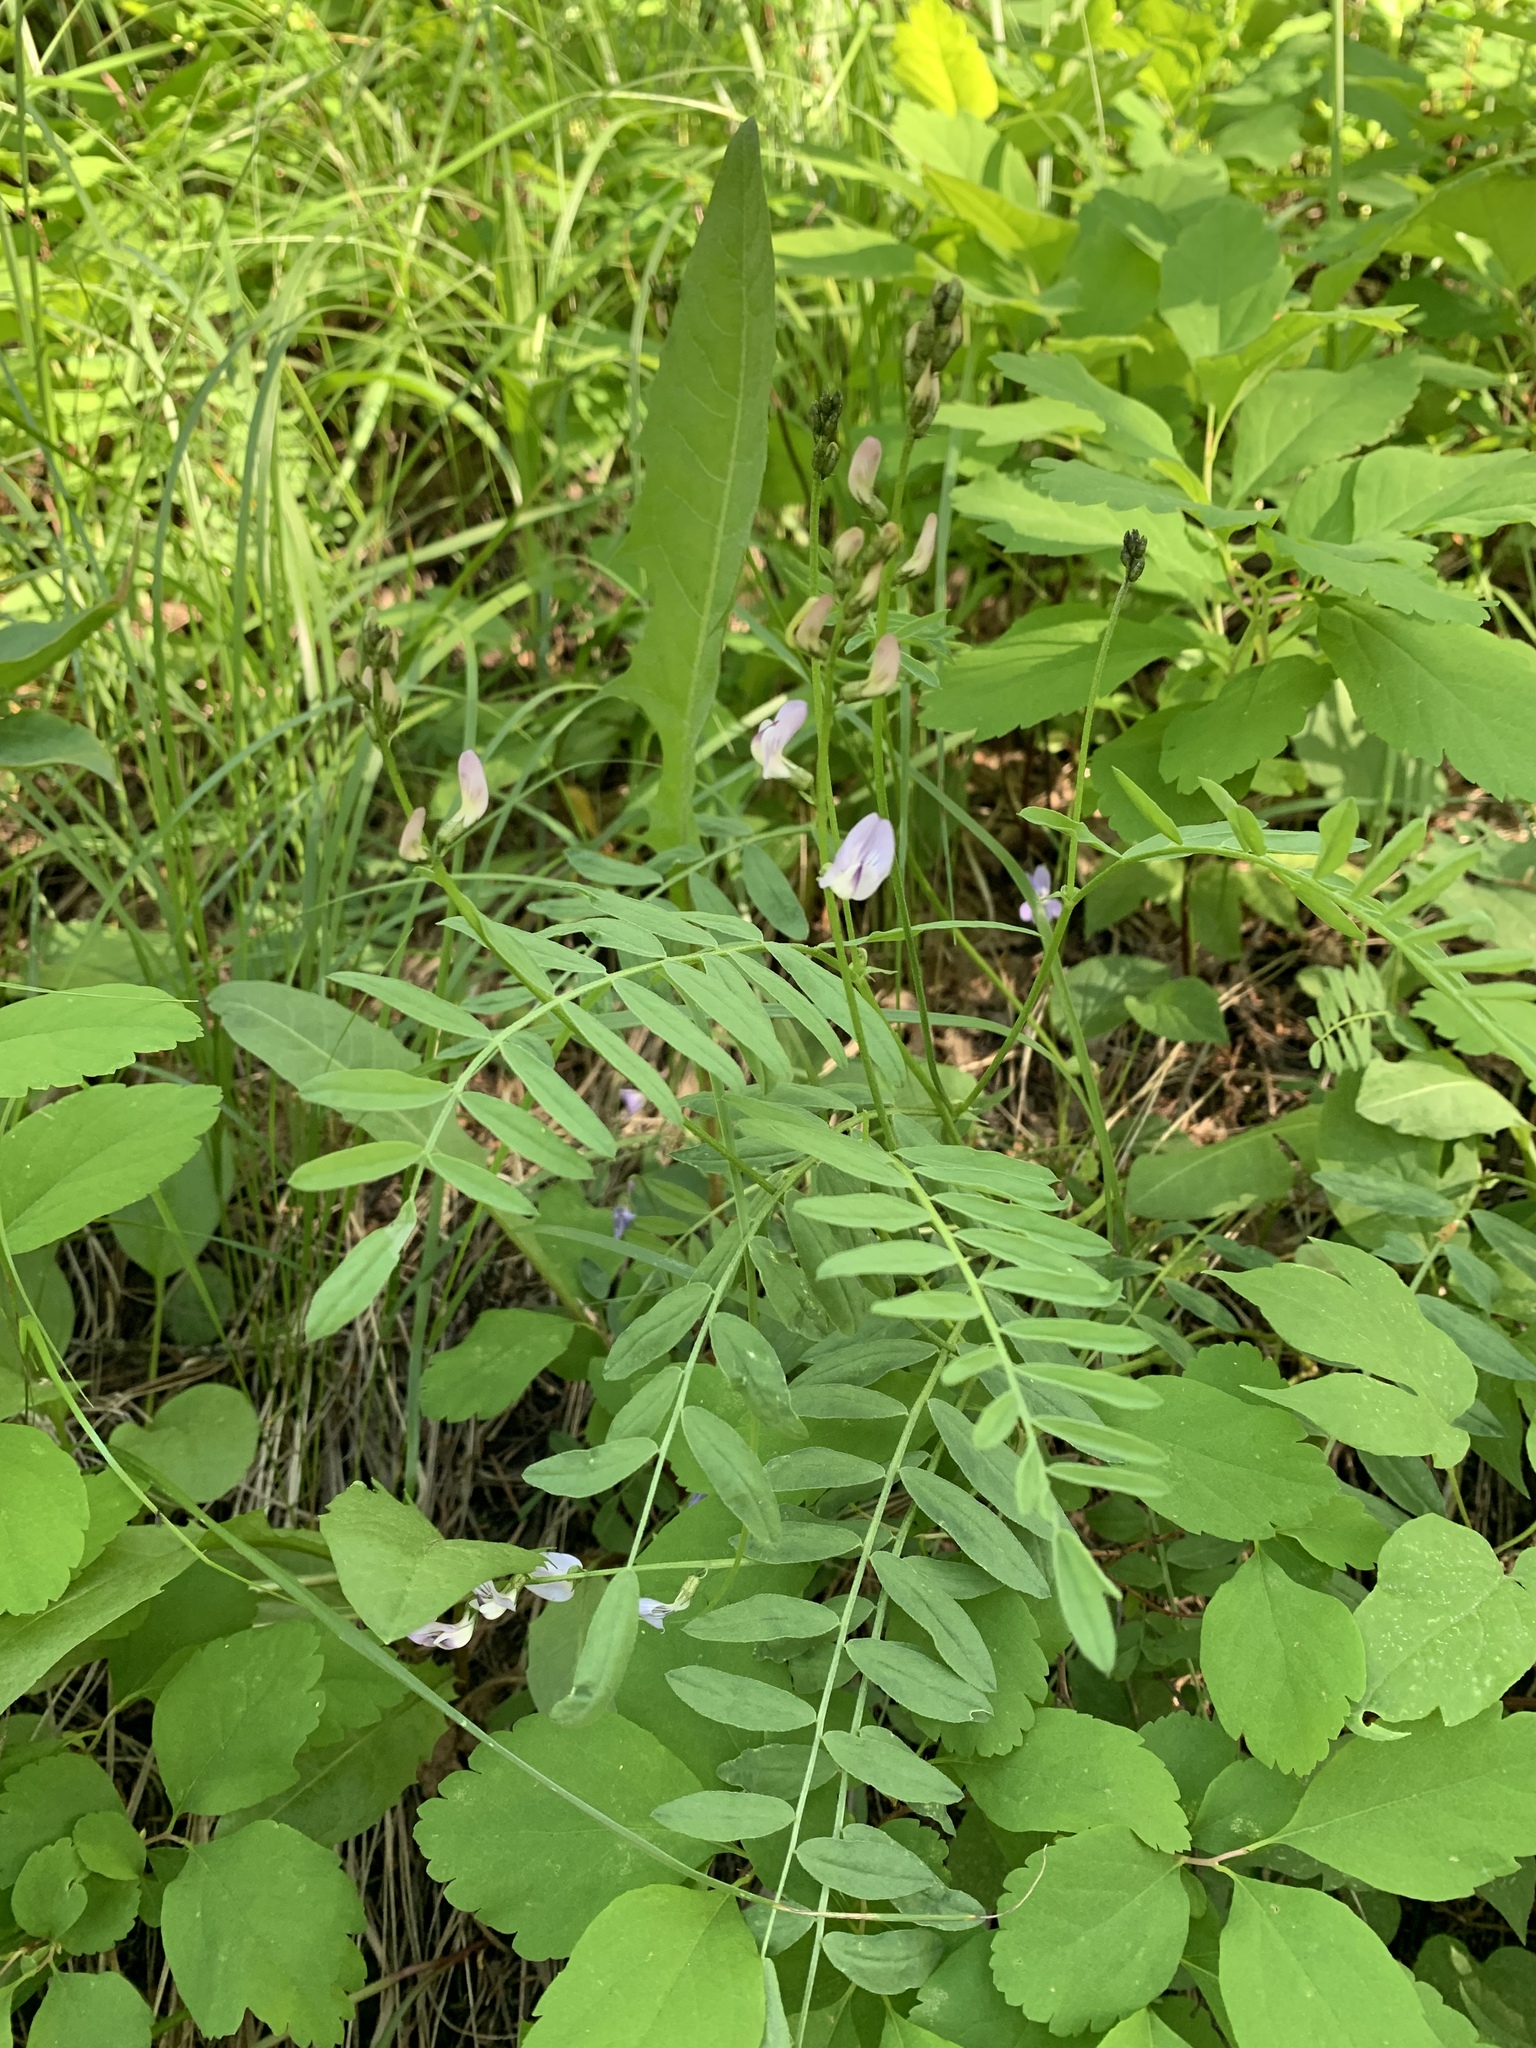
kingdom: Plantae
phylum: Tracheophyta
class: Magnoliopsida
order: Fabales
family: Fabaceae
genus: Astragalus
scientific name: Astragalus miser
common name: Timber milkvetch
